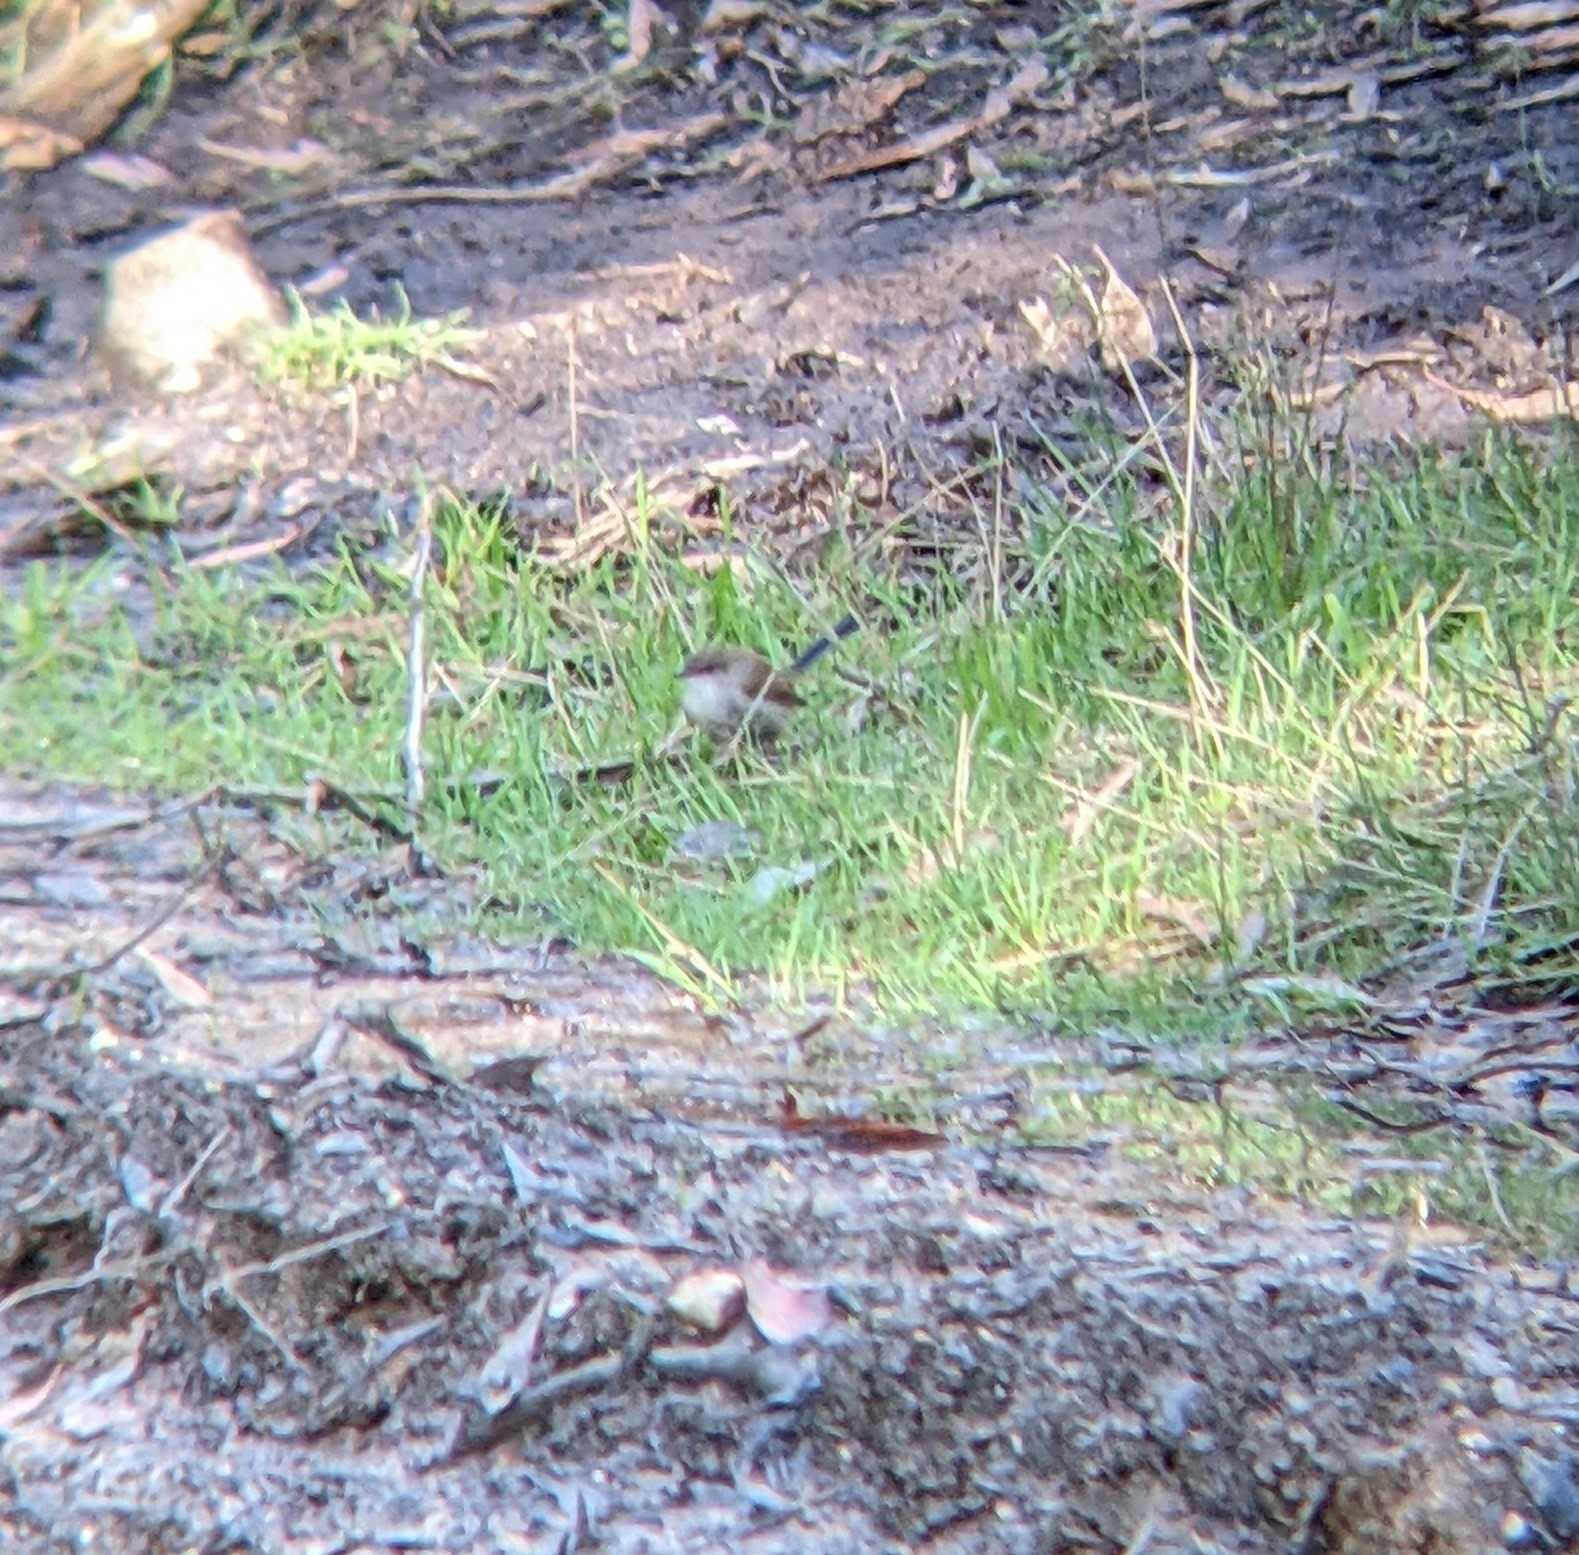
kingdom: Animalia
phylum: Chordata
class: Aves
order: Passeriformes
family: Maluridae
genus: Malurus
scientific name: Malurus cyaneus
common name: Superb fairywren
